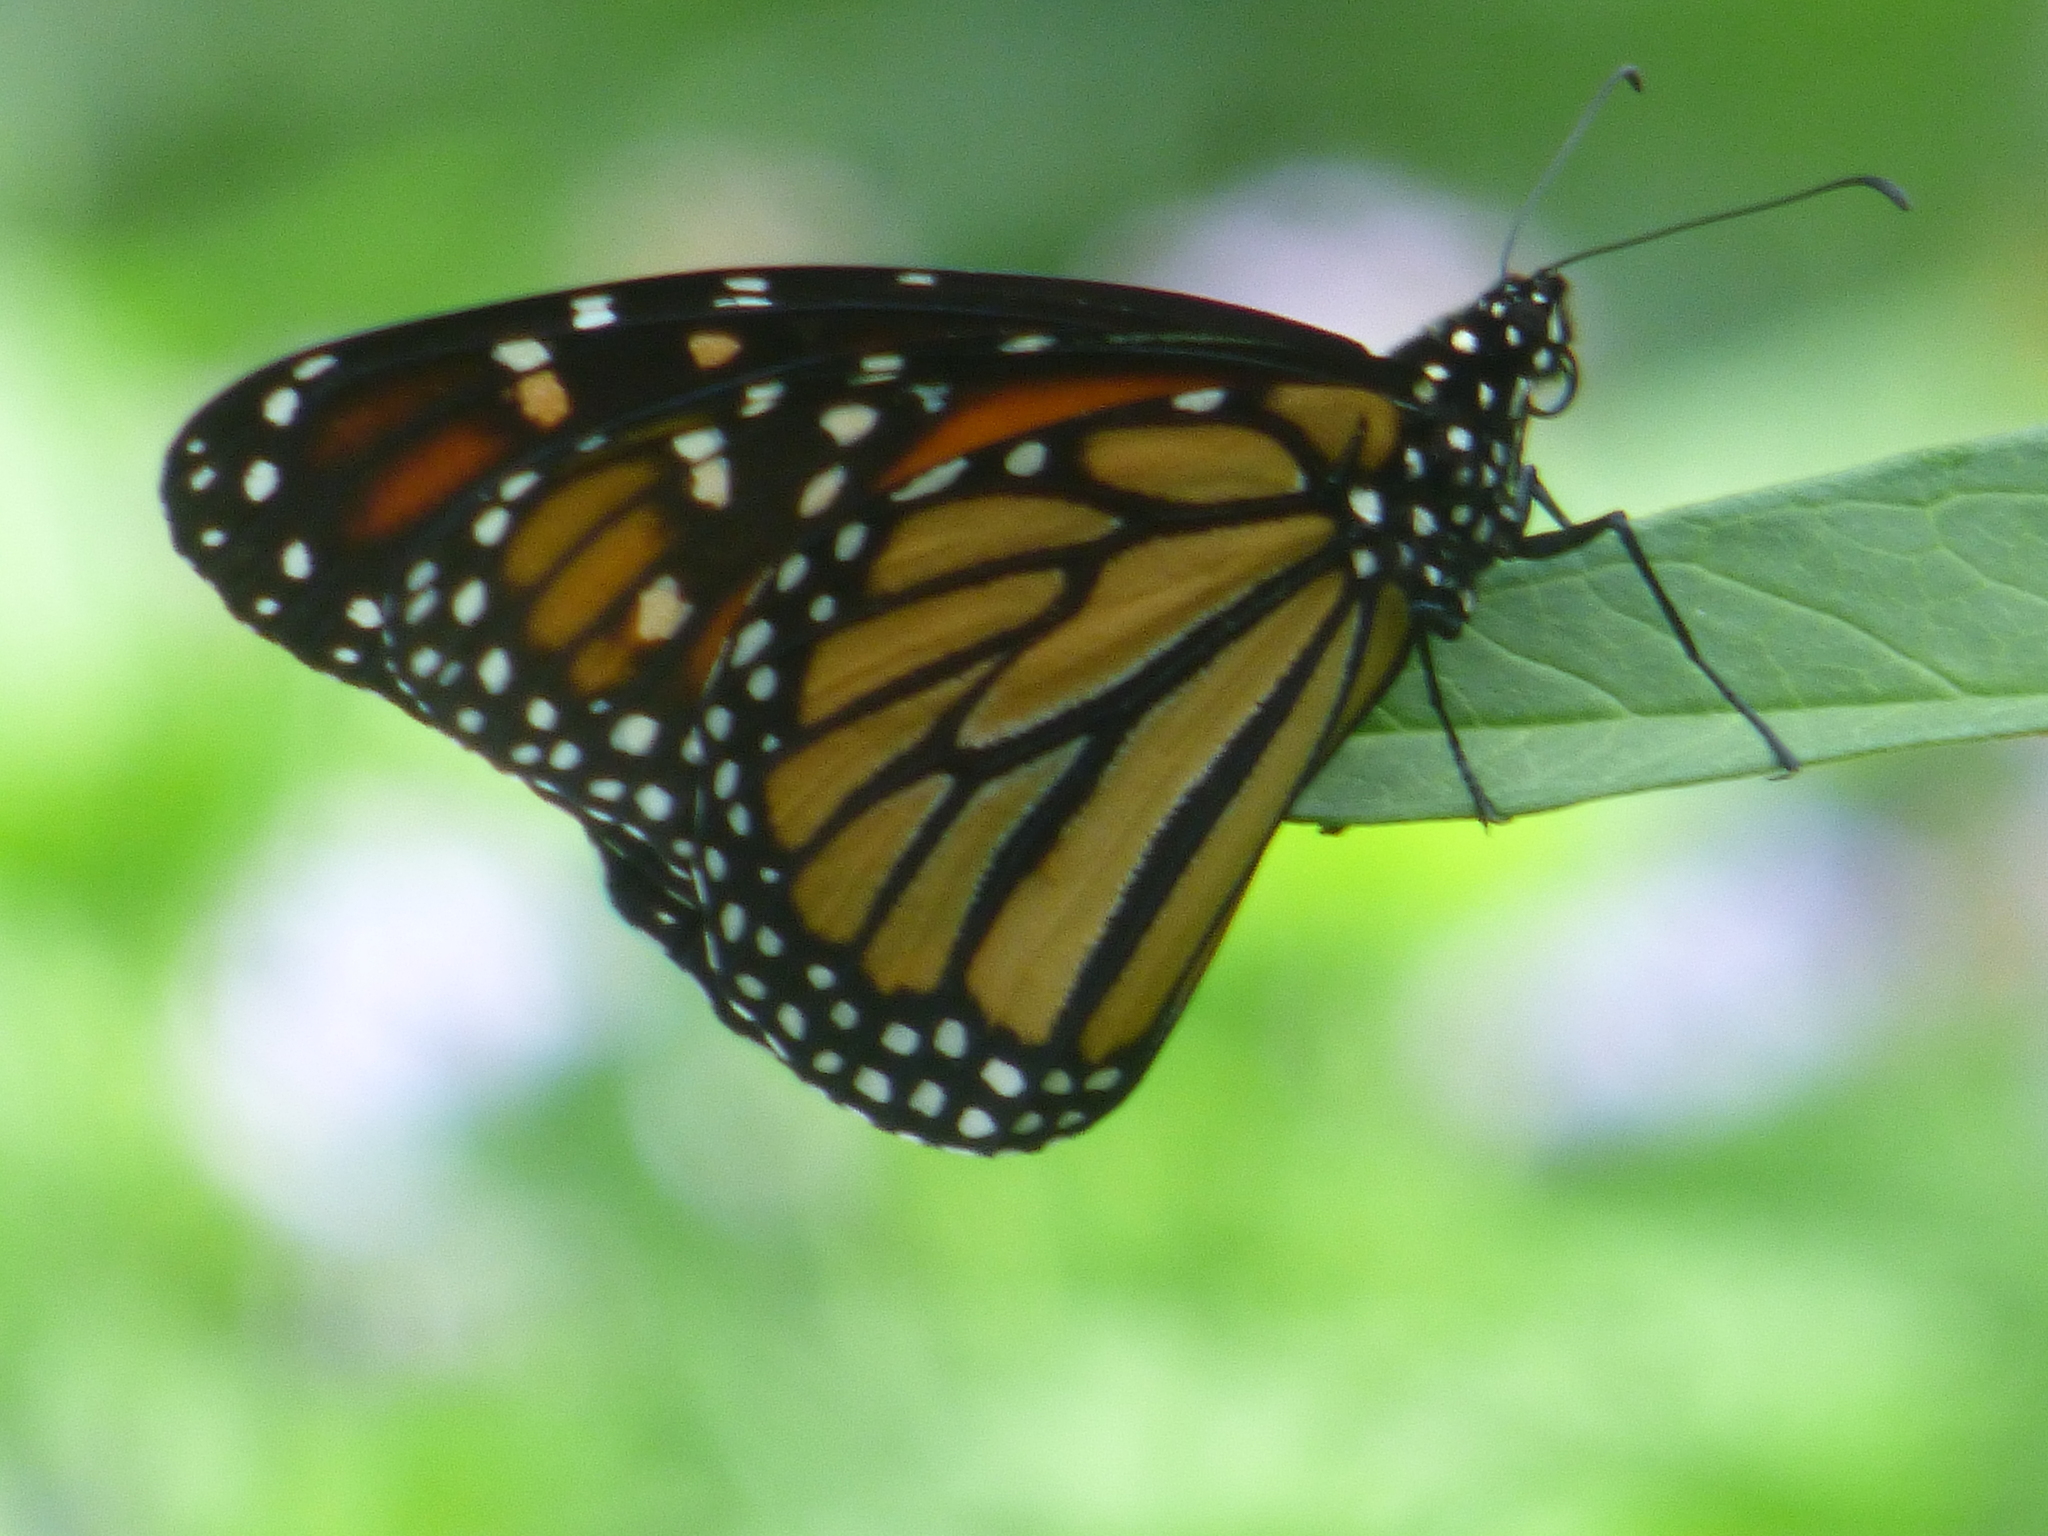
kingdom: Animalia
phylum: Arthropoda
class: Insecta
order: Lepidoptera
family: Nymphalidae
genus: Danaus
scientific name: Danaus plexippus
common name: Monarch
